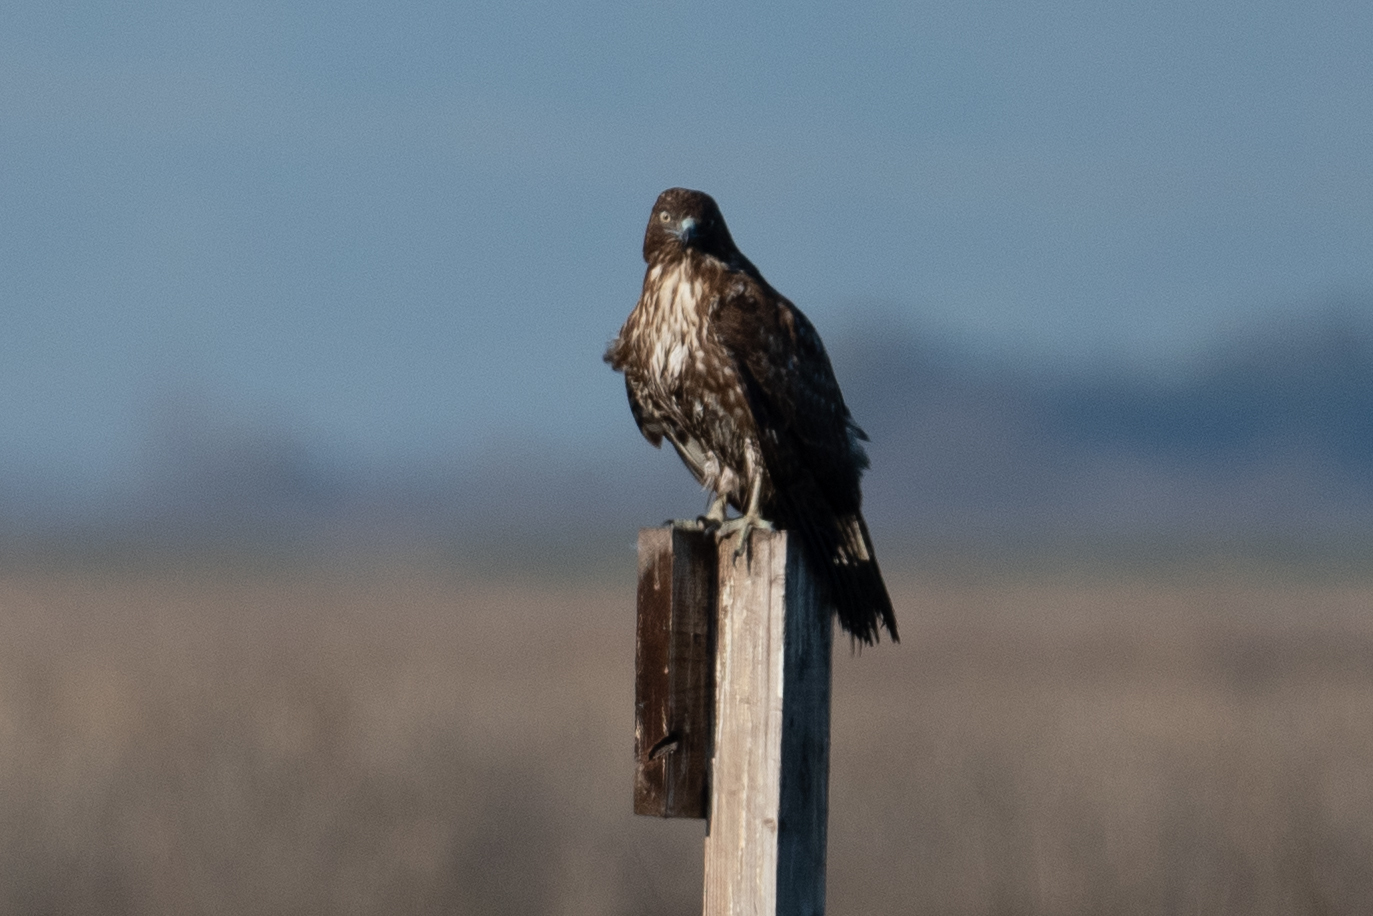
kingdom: Animalia
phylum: Chordata
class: Aves
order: Accipitriformes
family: Accipitridae
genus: Buteo
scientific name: Buteo jamaicensis
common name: Red-tailed hawk
